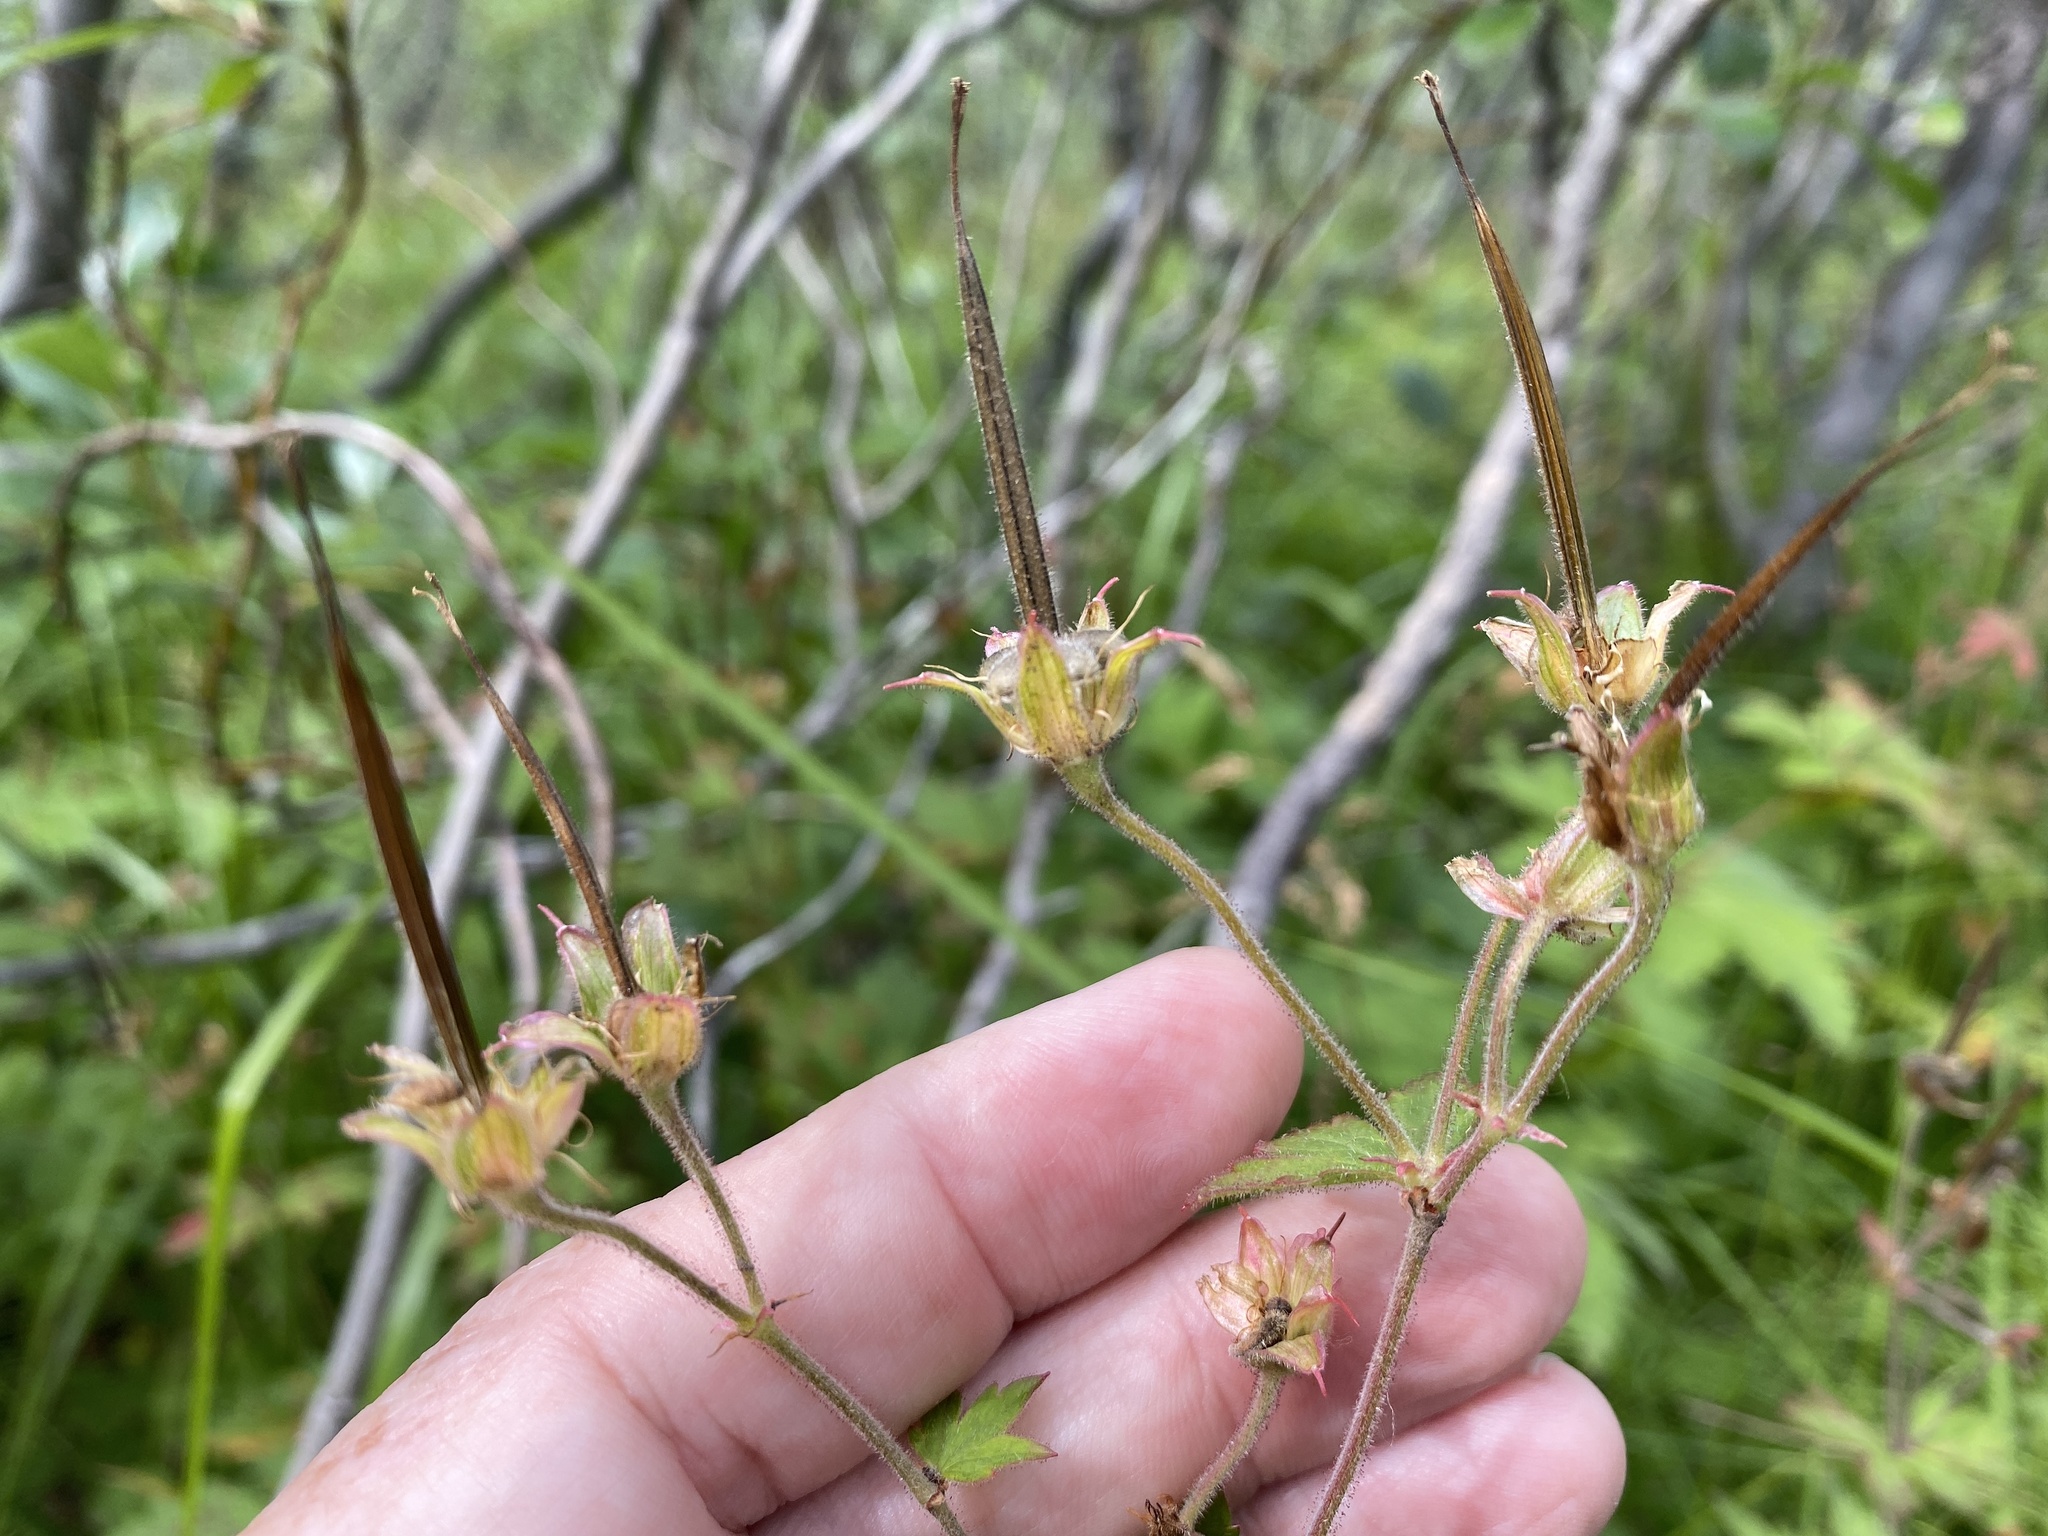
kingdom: Plantae
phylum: Tracheophyta
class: Magnoliopsida
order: Geraniales
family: Geraniaceae
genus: Geranium
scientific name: Geranium sylvaticum
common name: Wood crane's-bill
